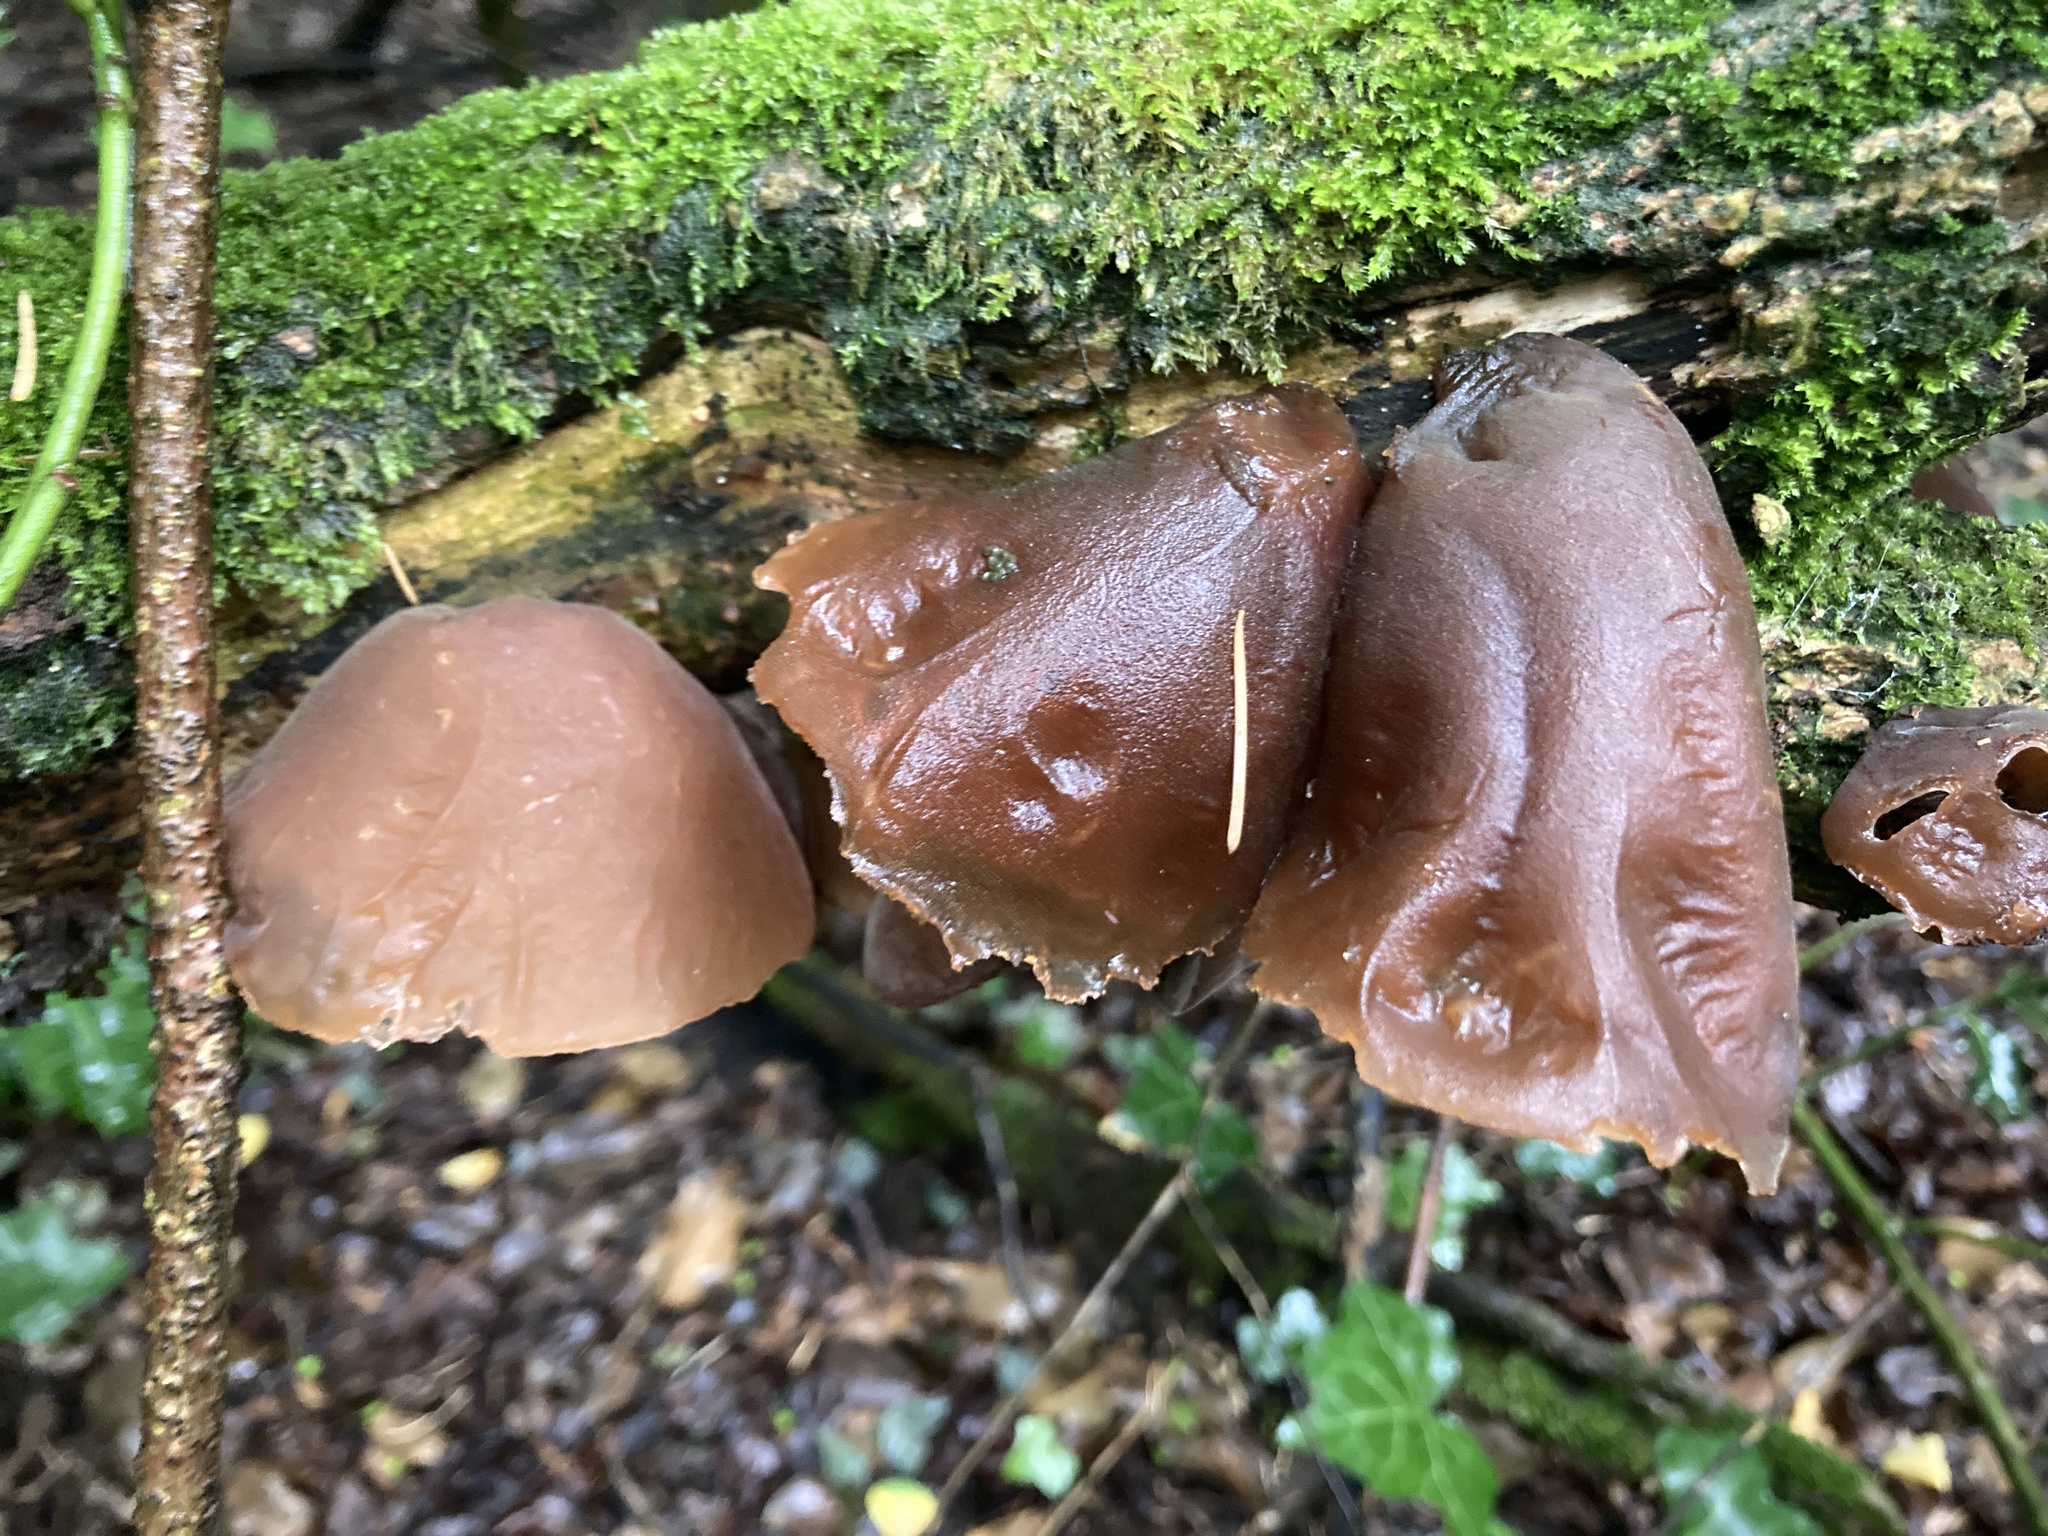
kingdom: Fungi
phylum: Basidiomycota
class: Agaricomycetes
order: Auriculariales
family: Auriculariaceae
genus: Auricularia
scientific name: Auricularia auricula-judae
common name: Jelly ear
